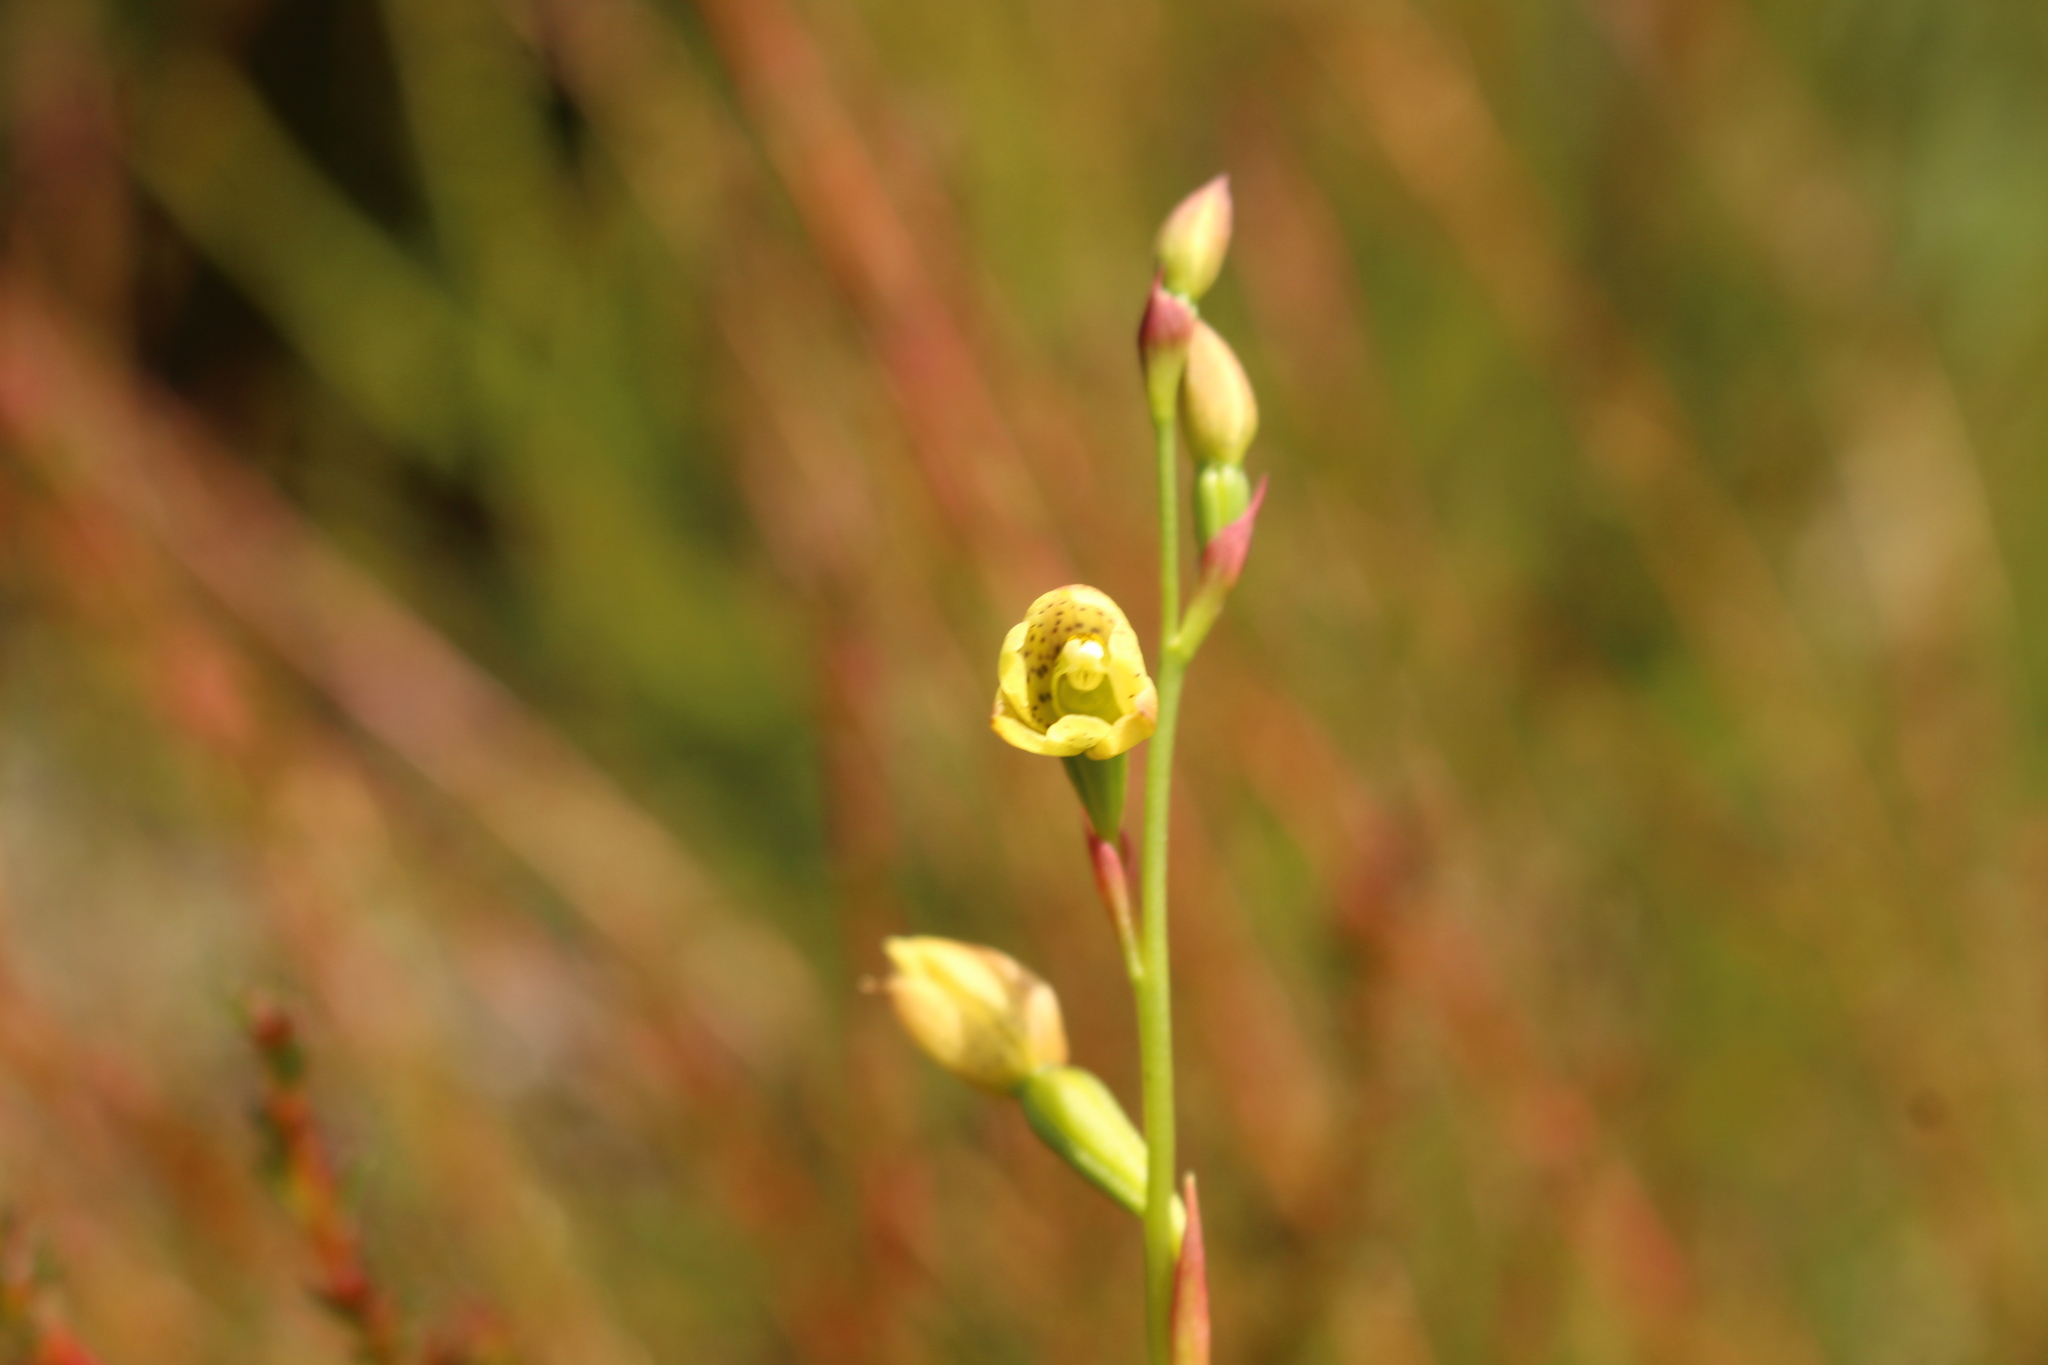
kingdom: Plantae
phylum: Tracheophyta
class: Liliopsida
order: Asparagales
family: Orchidaceae
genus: Thelymitra
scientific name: Thelymitra tigrina
